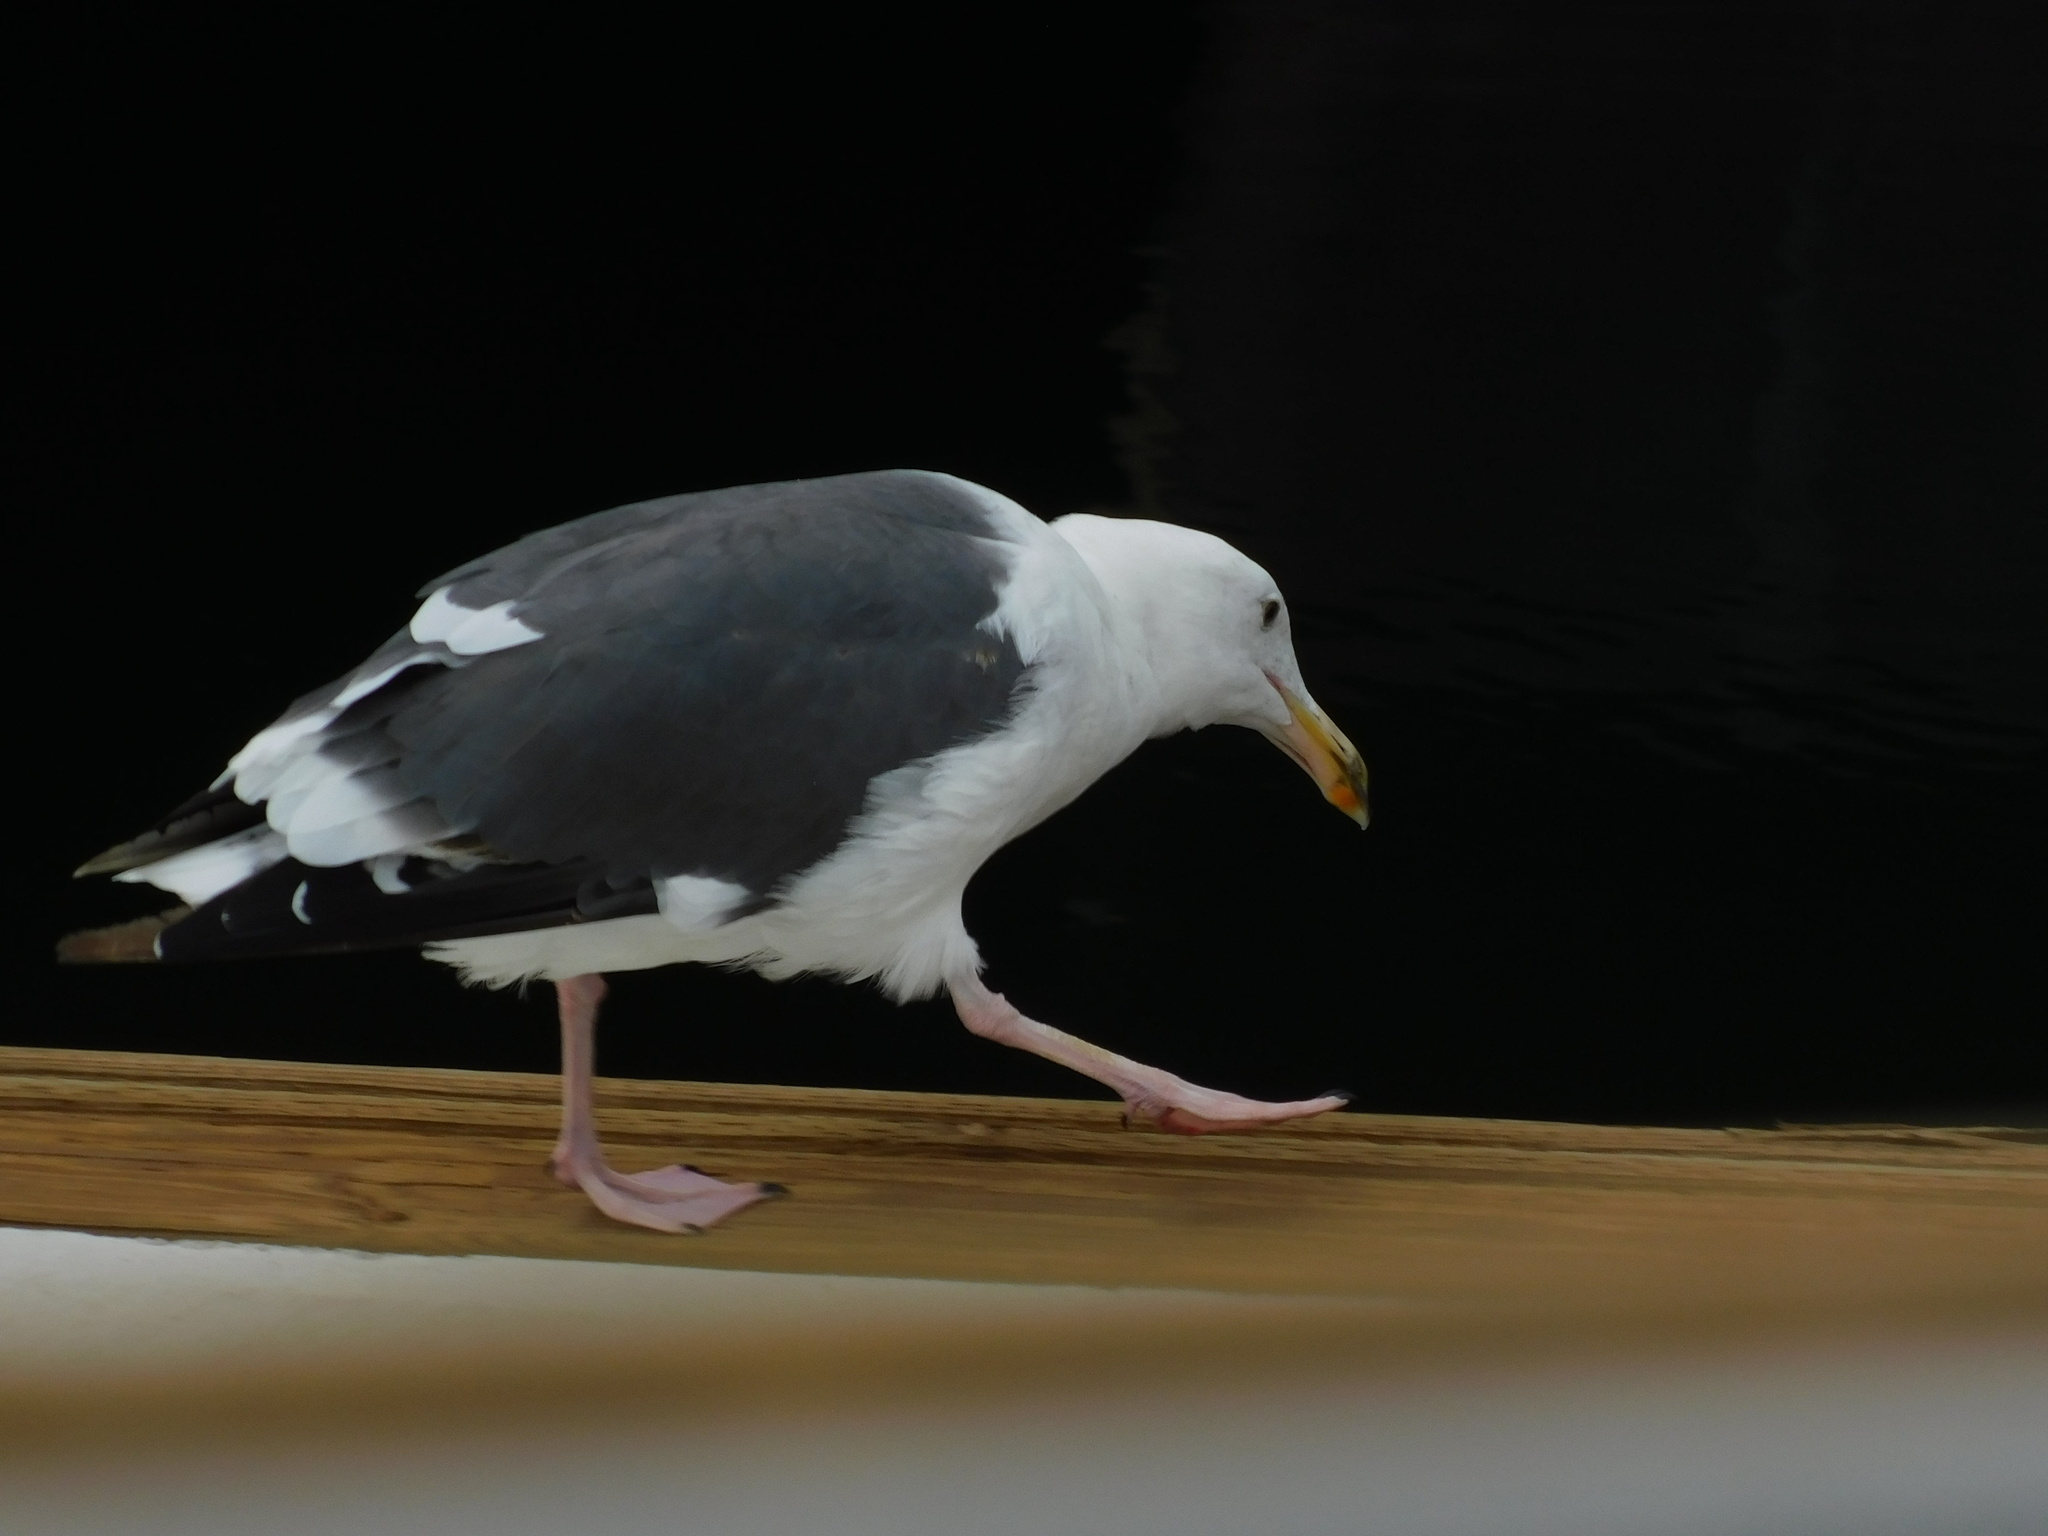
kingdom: Animalia
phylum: Chordata
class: Aves
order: Charadriiformes
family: Laridae
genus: Larus
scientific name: Larus occidentalis
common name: Western gull
